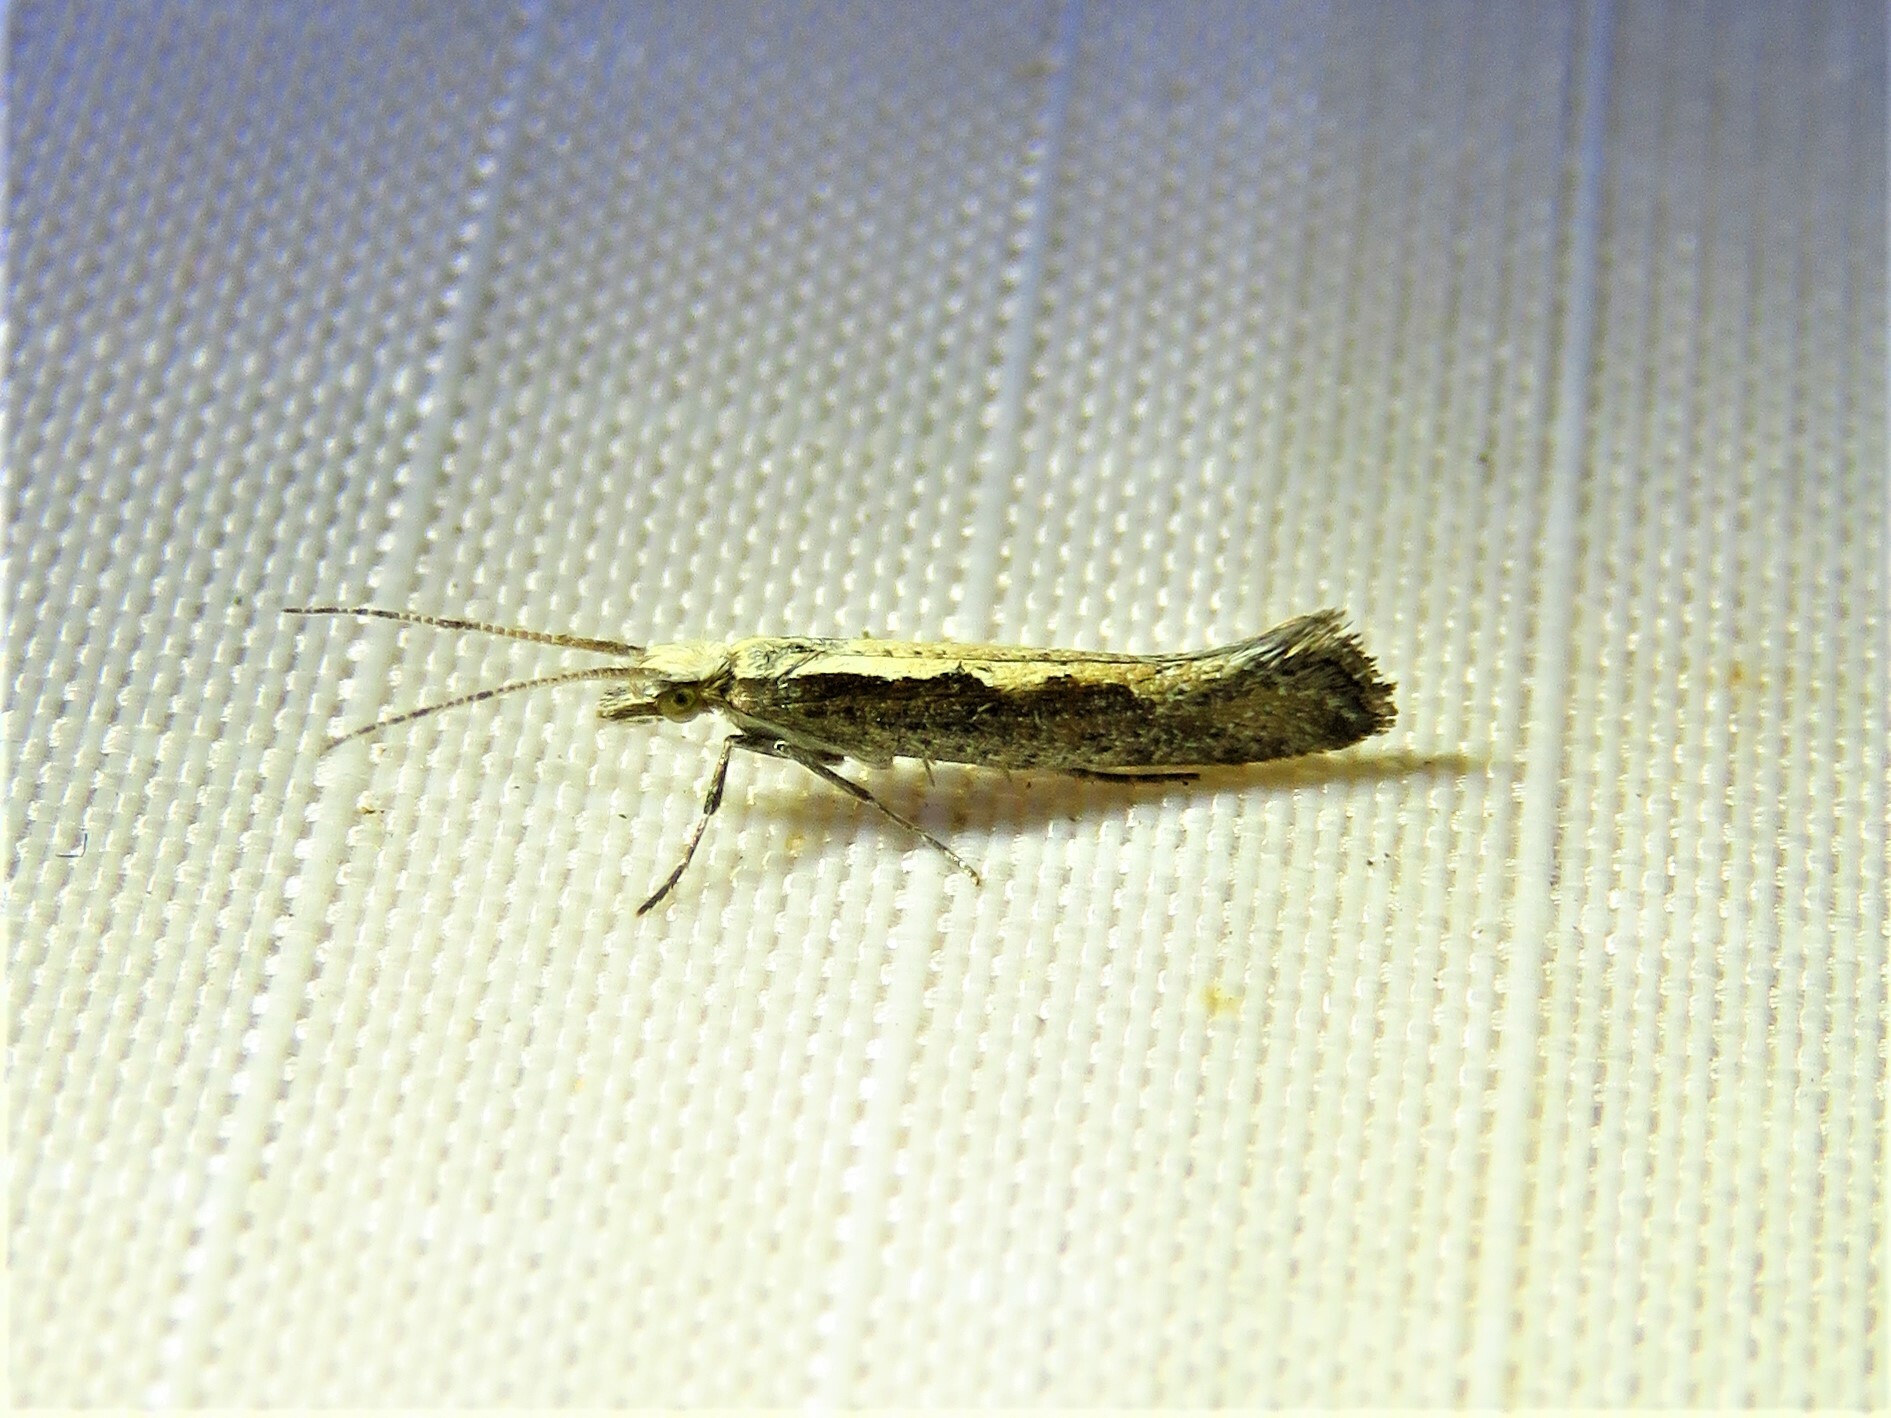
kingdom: Animalia
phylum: Arthropoda
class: Insecta
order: Lepidoptera
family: Plutellidae
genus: Plutella
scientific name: Plutella xylostella
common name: Diamond-back moth
